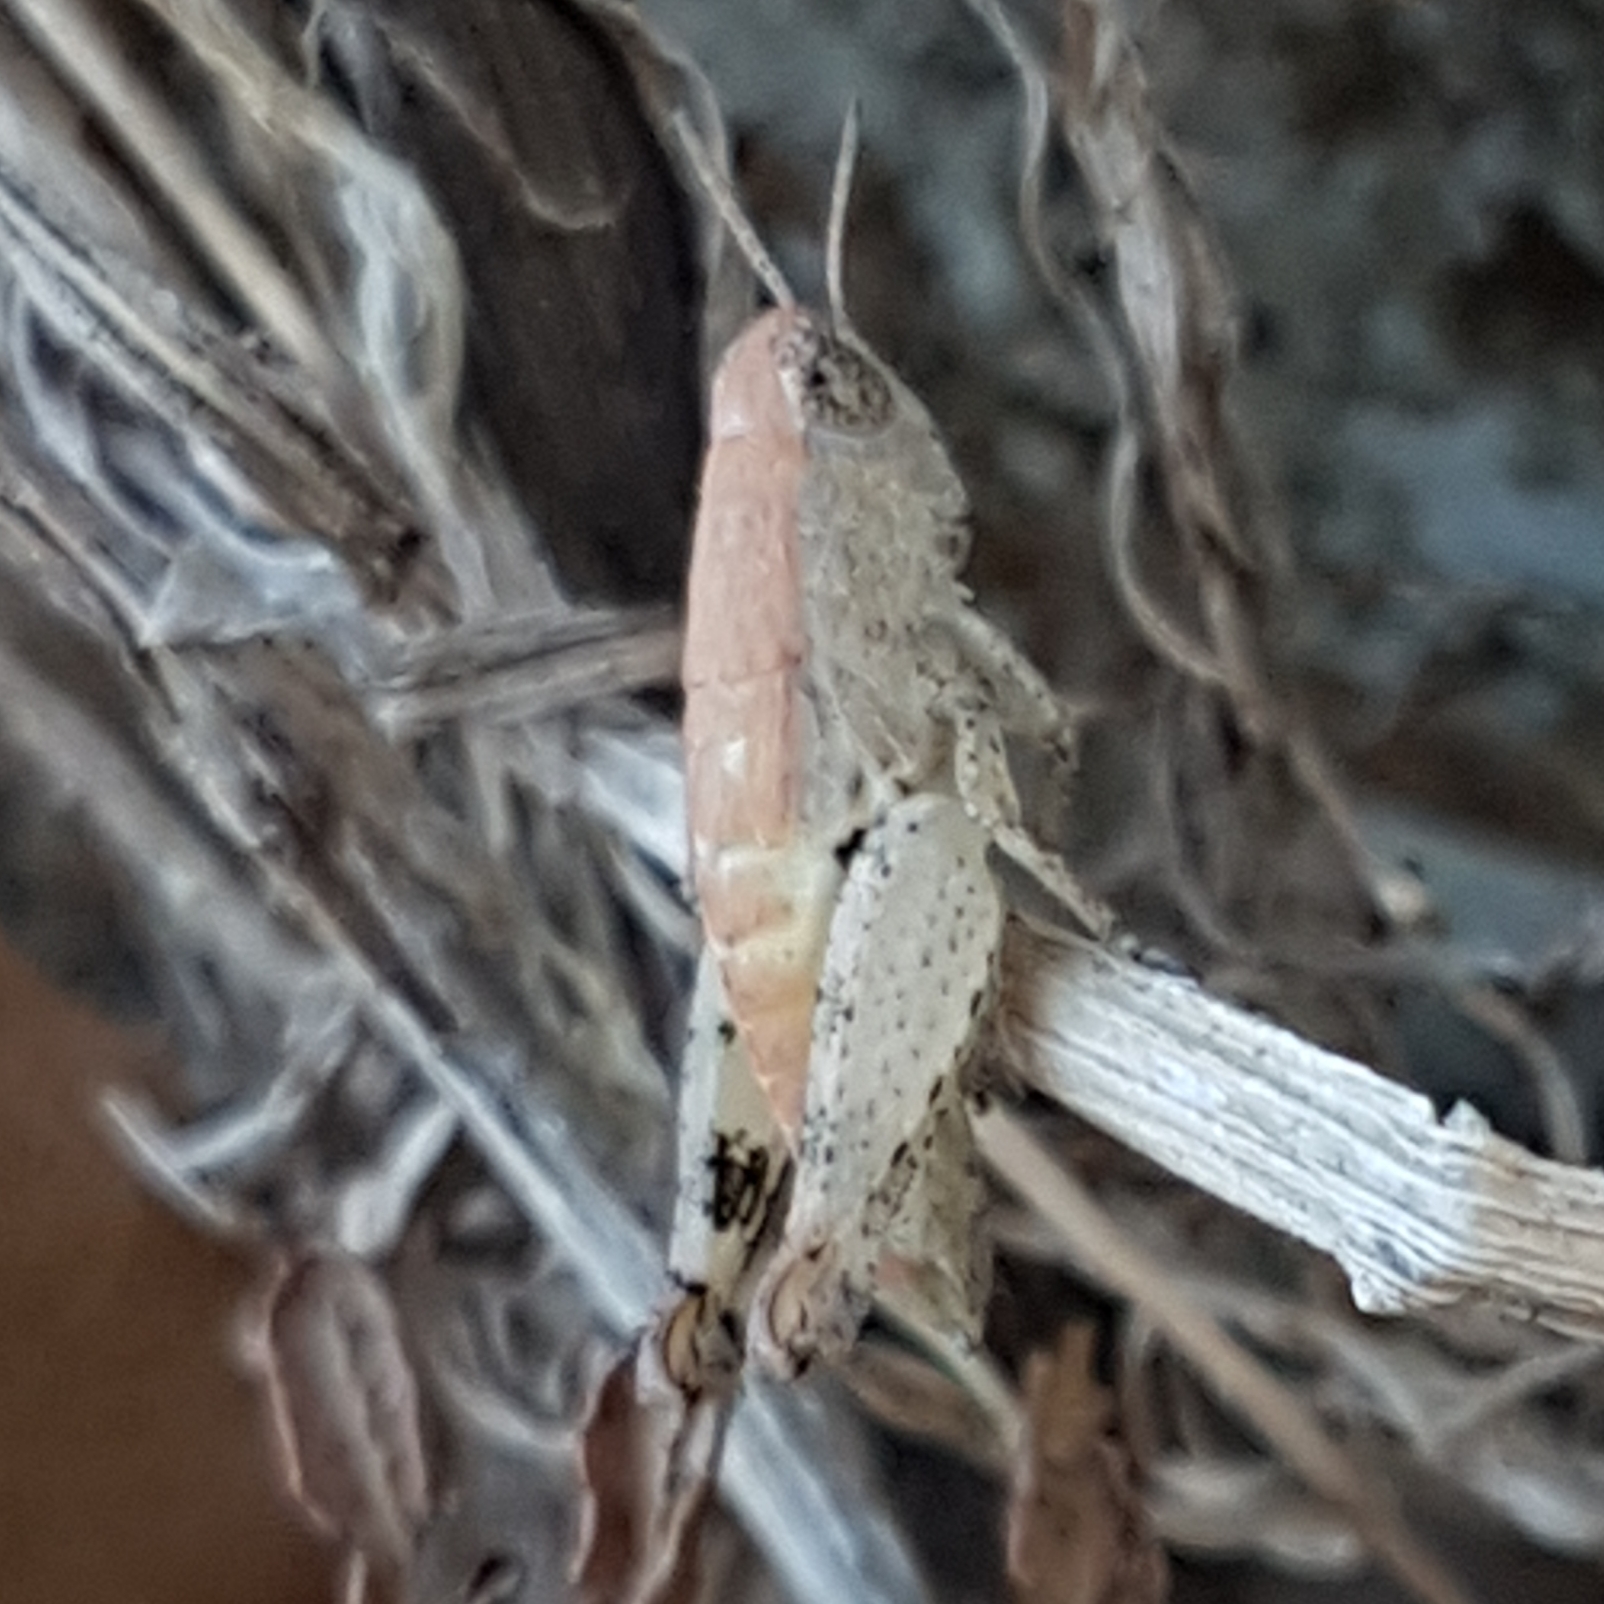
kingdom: Animalia
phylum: Arthropoda
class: Insecta
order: Orthoptera
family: Acrididae
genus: Pezotettix
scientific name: Pezotettix giornae
